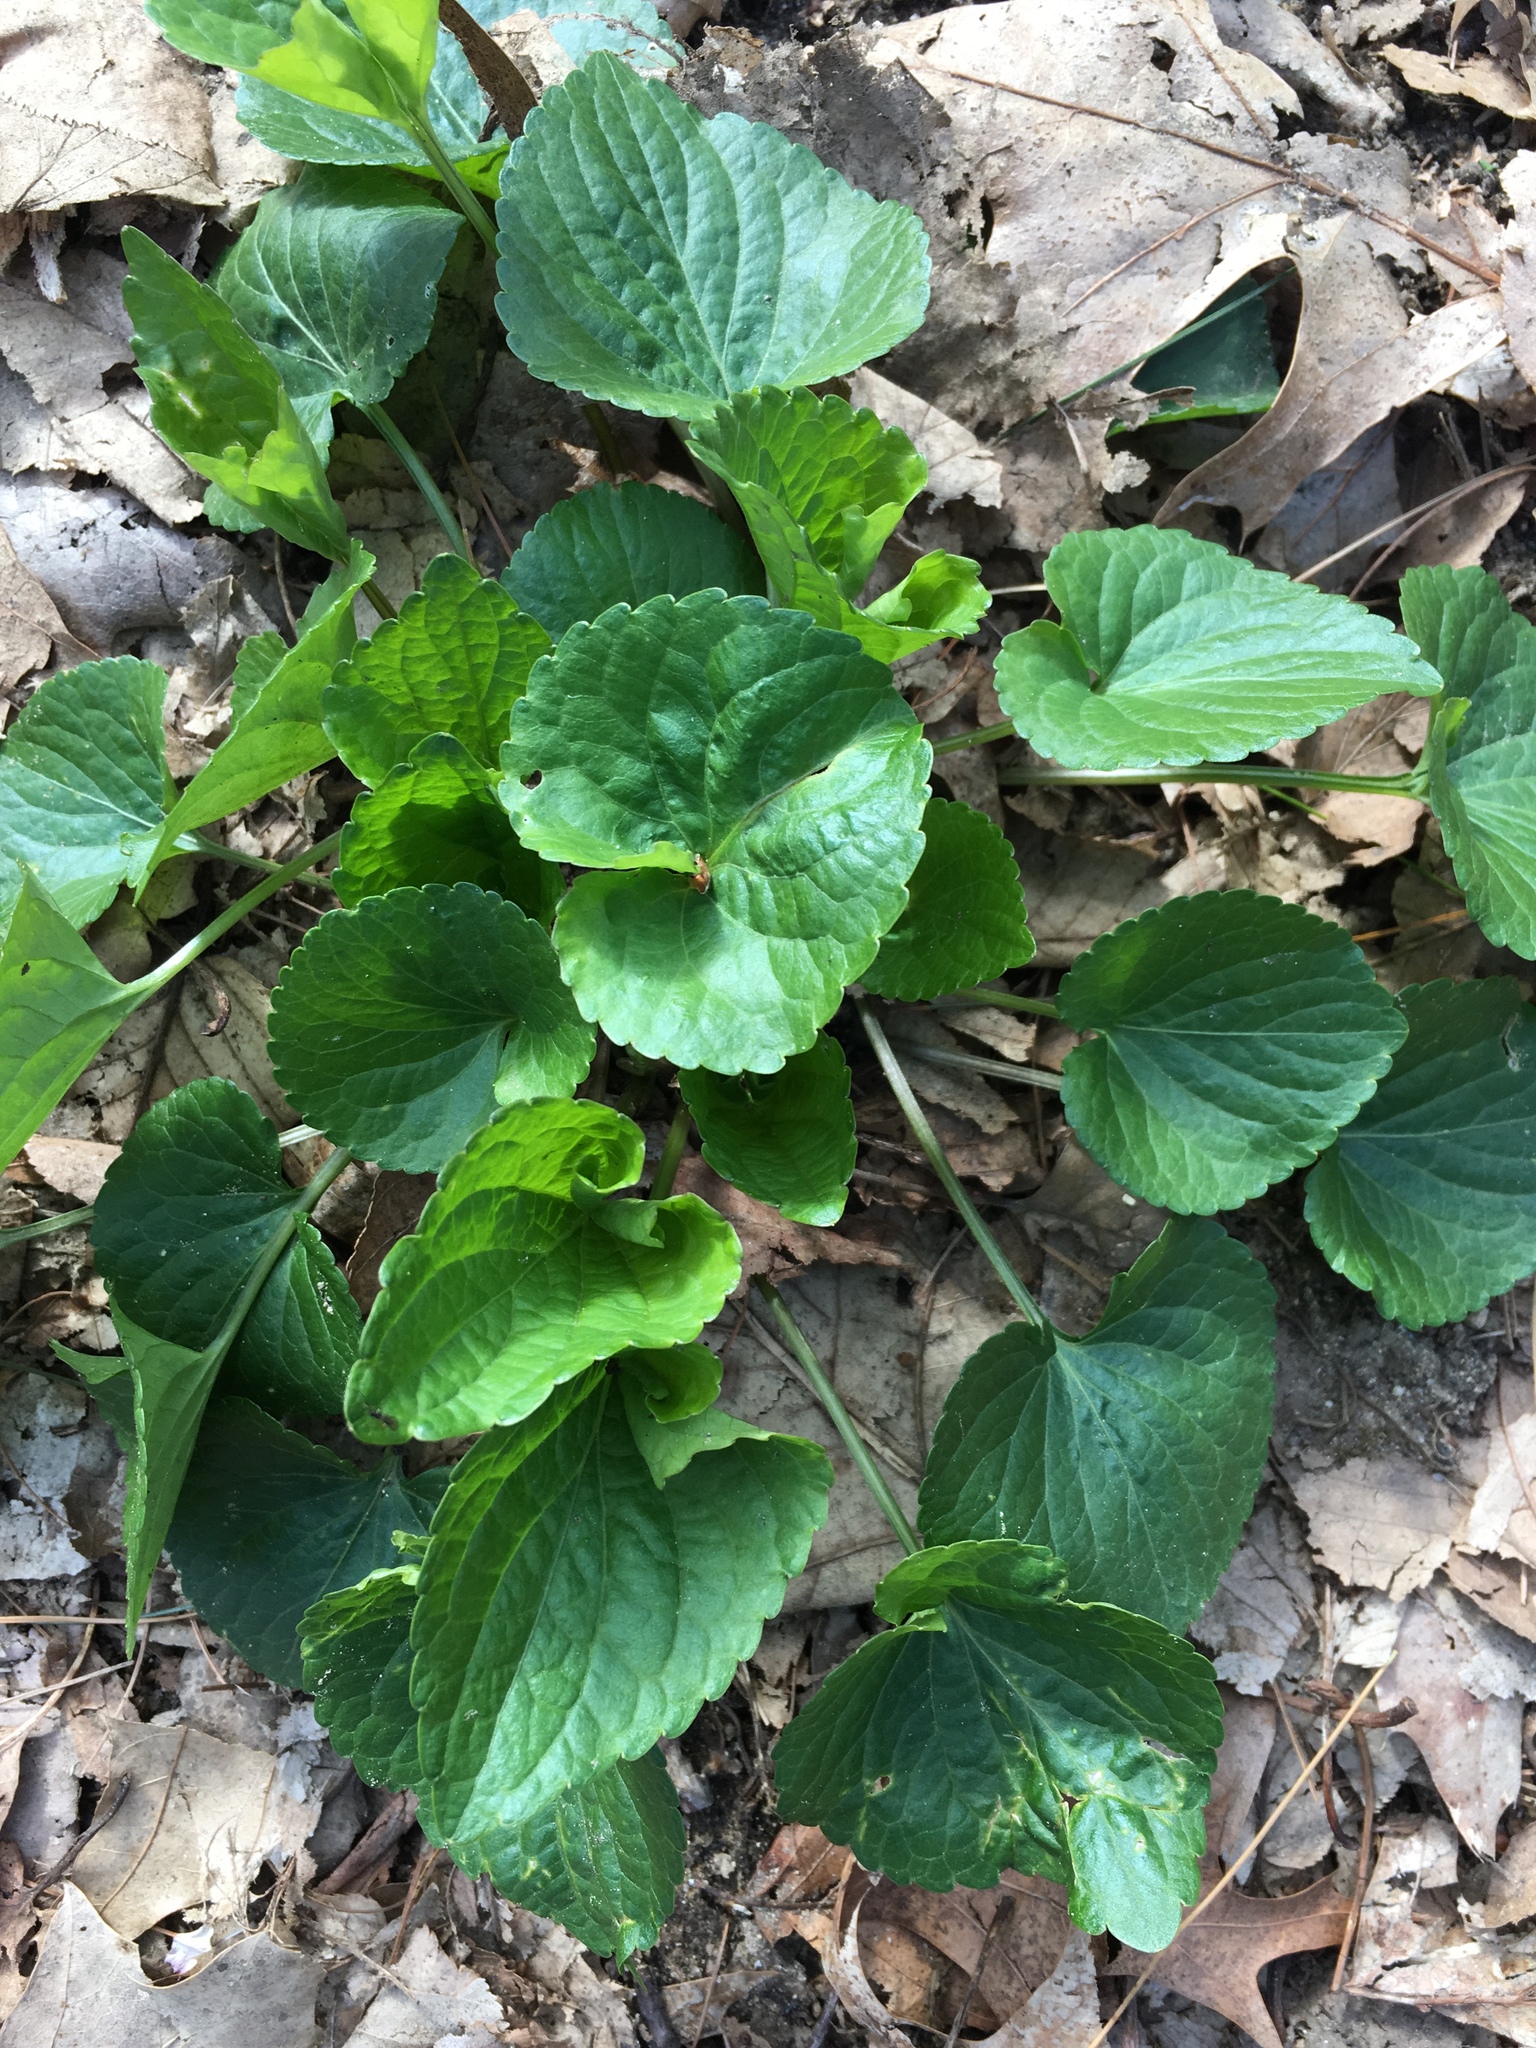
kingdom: Plantae
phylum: Tracheophyta
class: Magnoliopsida
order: Malpighiales
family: Violaceae
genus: Viola
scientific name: Viola sororia
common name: Dooryard violet
